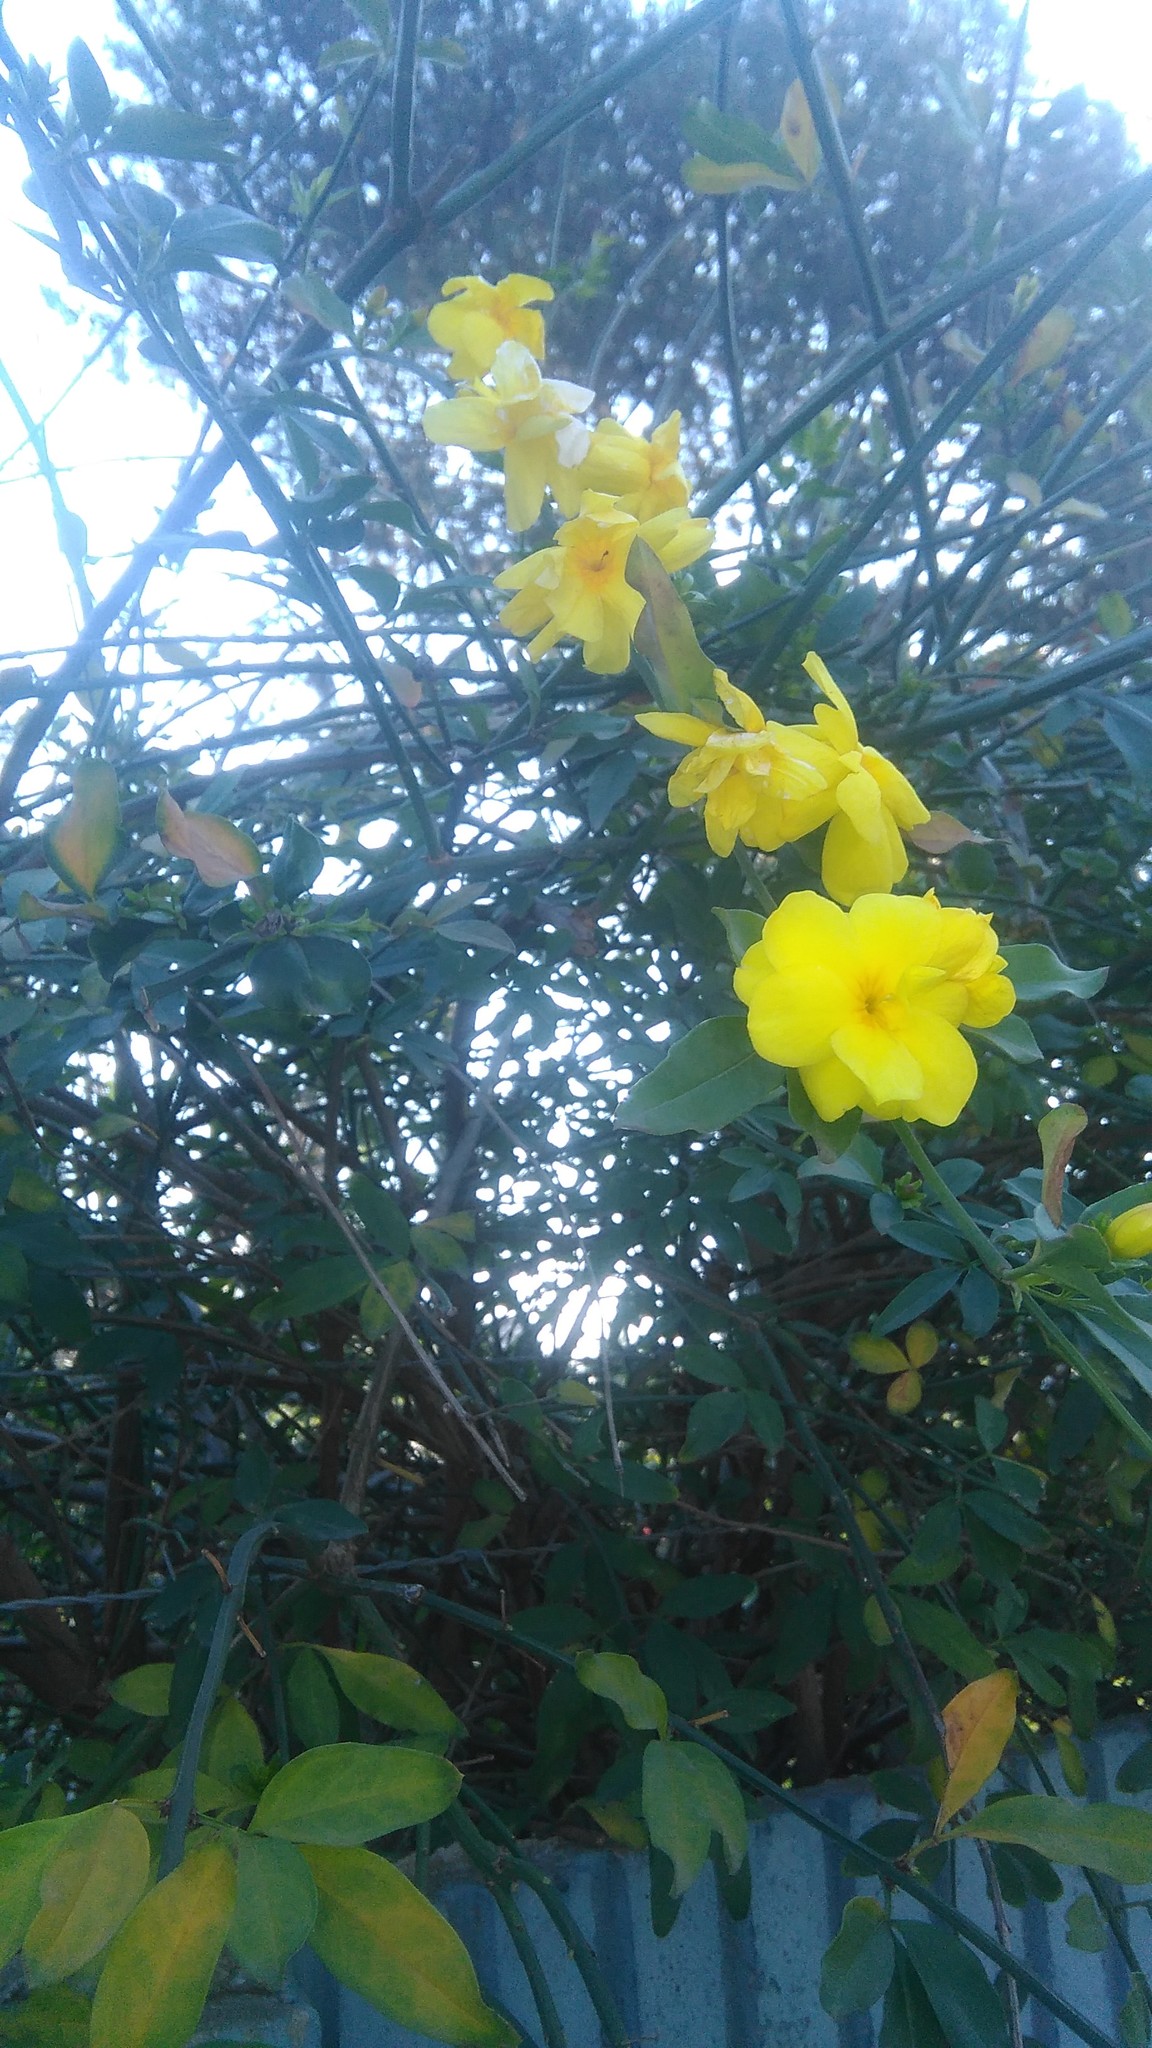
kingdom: Plantae
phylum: Tracheophyta
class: Magnoliopsida
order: Lamiales
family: Oleaceae
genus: Jasminum
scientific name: Jasminum mesnyi
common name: Japanese jasmine
